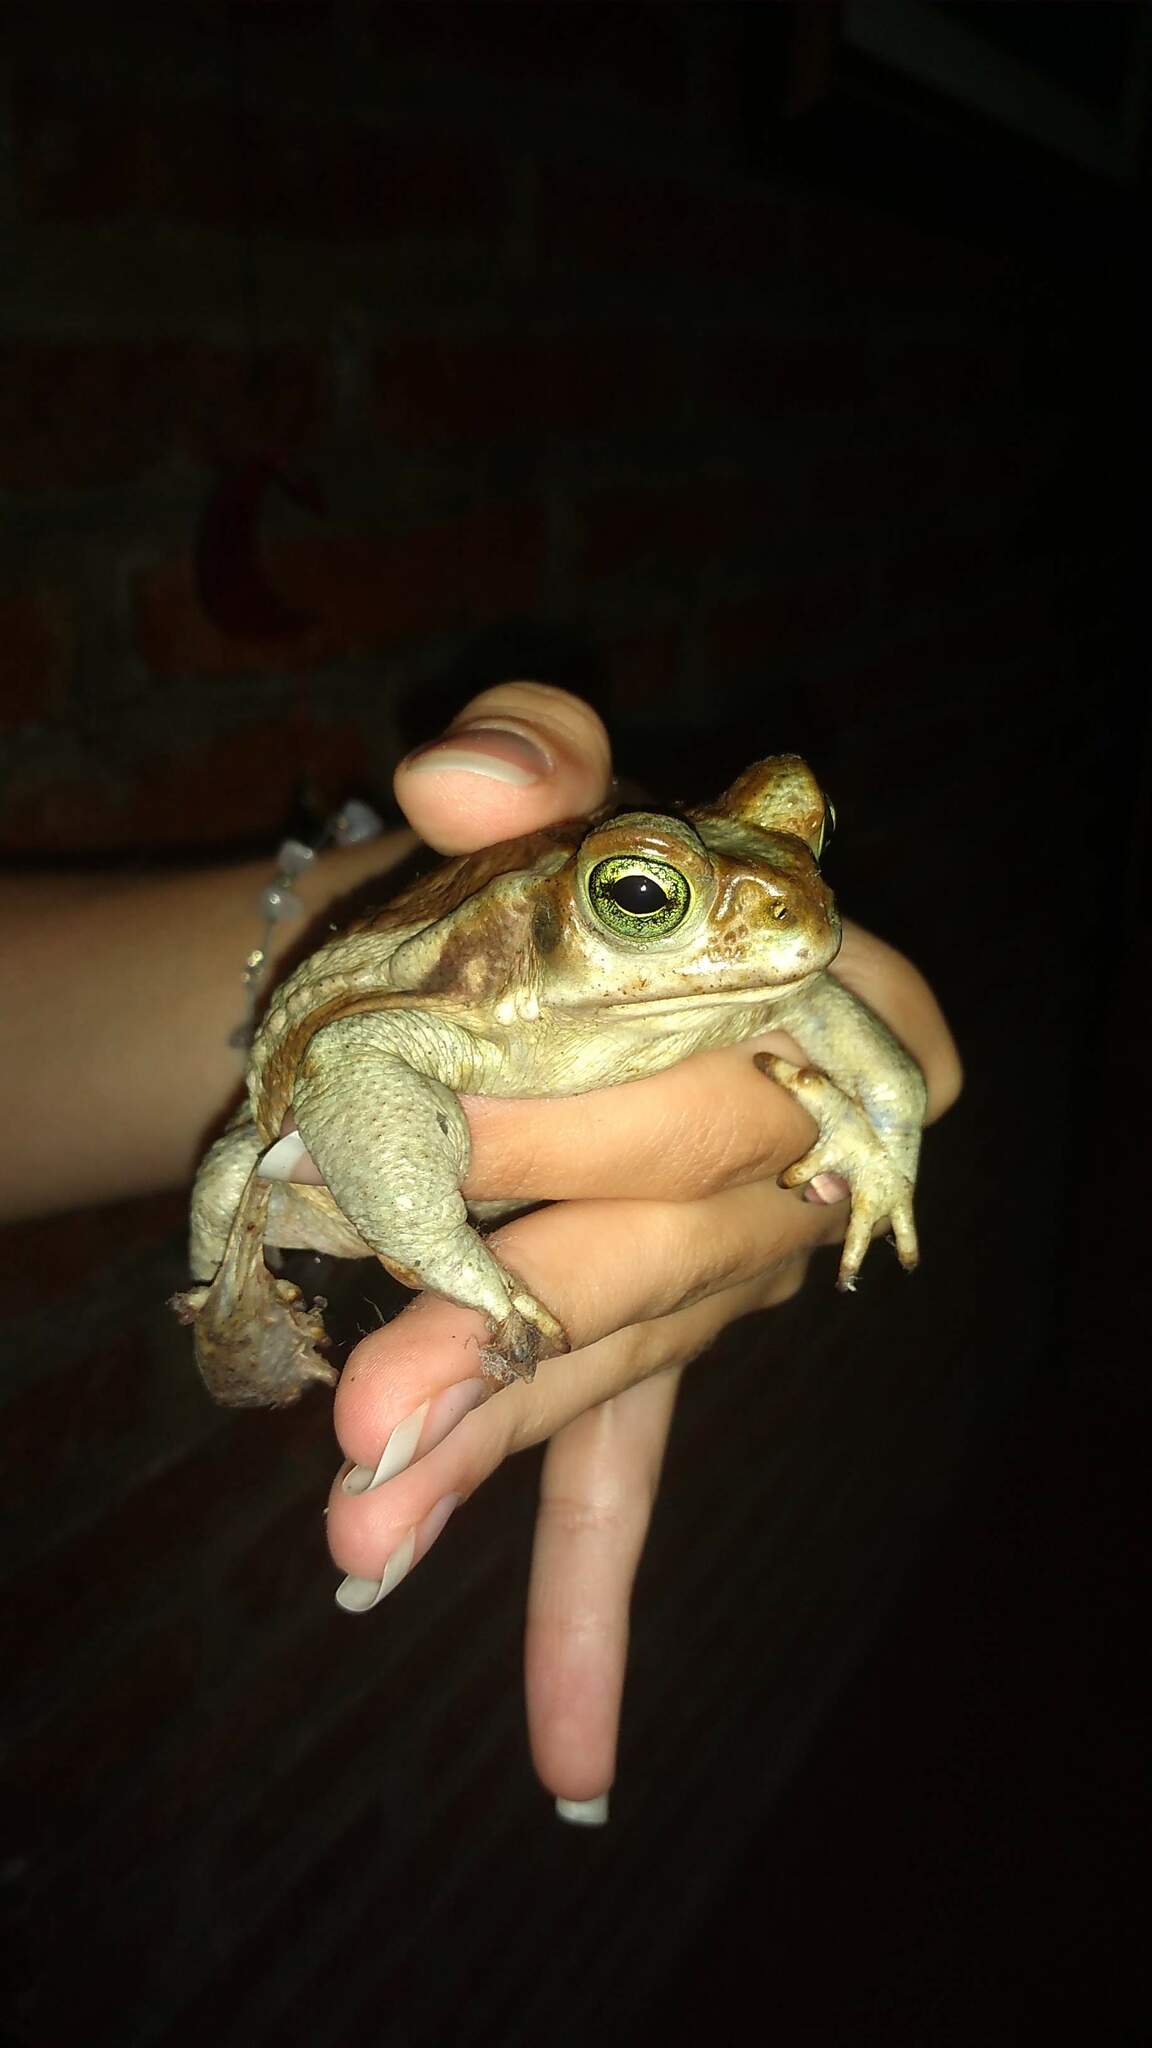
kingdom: Animalia
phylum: Chordata
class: Amphibia
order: Anura
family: Bufonidae
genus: Rhinella
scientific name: Rhinella arenarum
